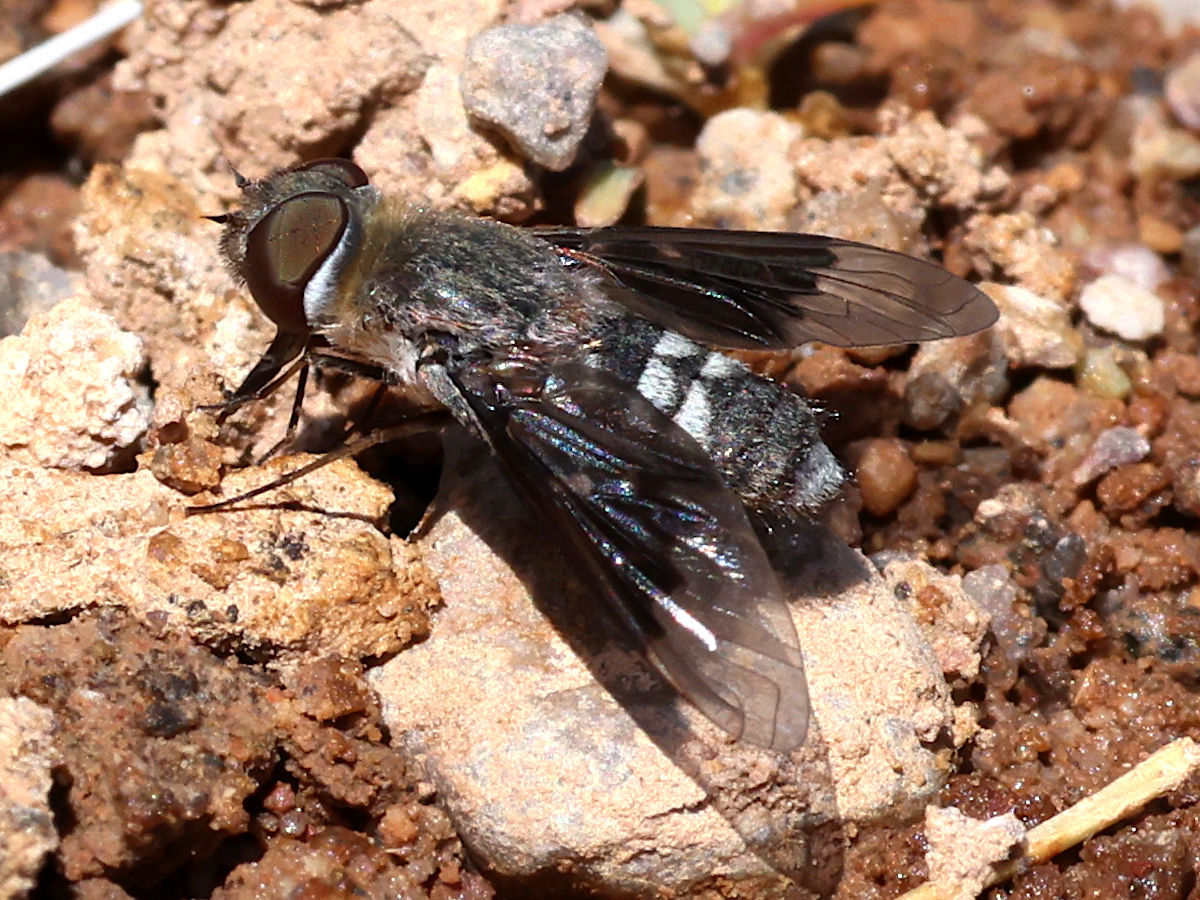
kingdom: Animalia
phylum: Arthropoda
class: Insecta
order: Diptera
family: Bombyliidae
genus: Thyridanthrax
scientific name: Thyridanthrax selene
